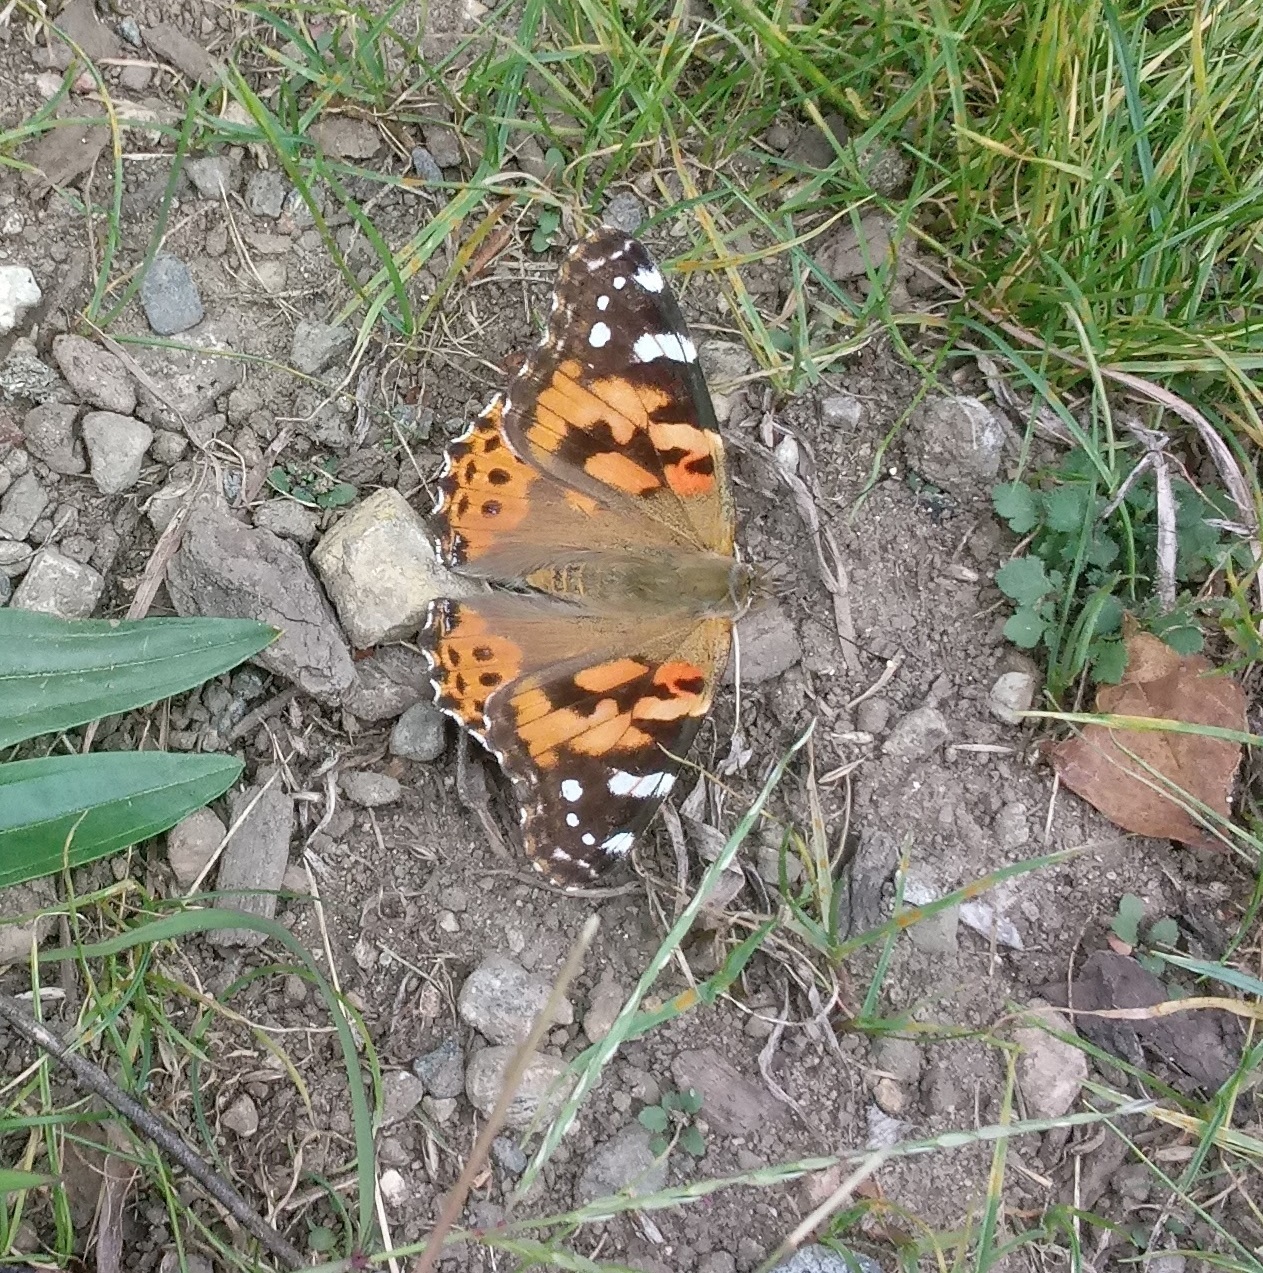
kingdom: Animalia
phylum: Arthropoda
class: Insecta
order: Lepidoptera
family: Nymphalidae
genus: Vanessa
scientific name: Vanessa cardui
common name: Painted lady
